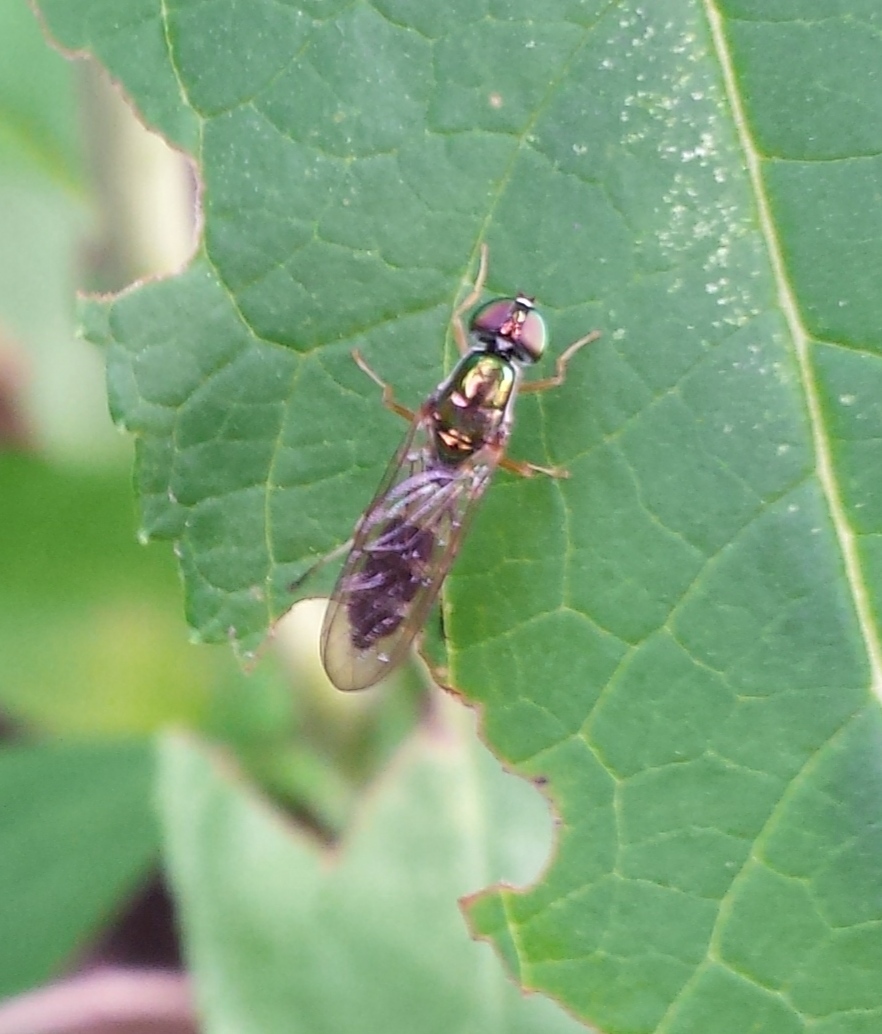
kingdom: Animalia
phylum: Arthropoda
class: Insecta
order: Diptera
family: Stratiomyidae
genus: Sargus
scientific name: Sargus fasciatus
